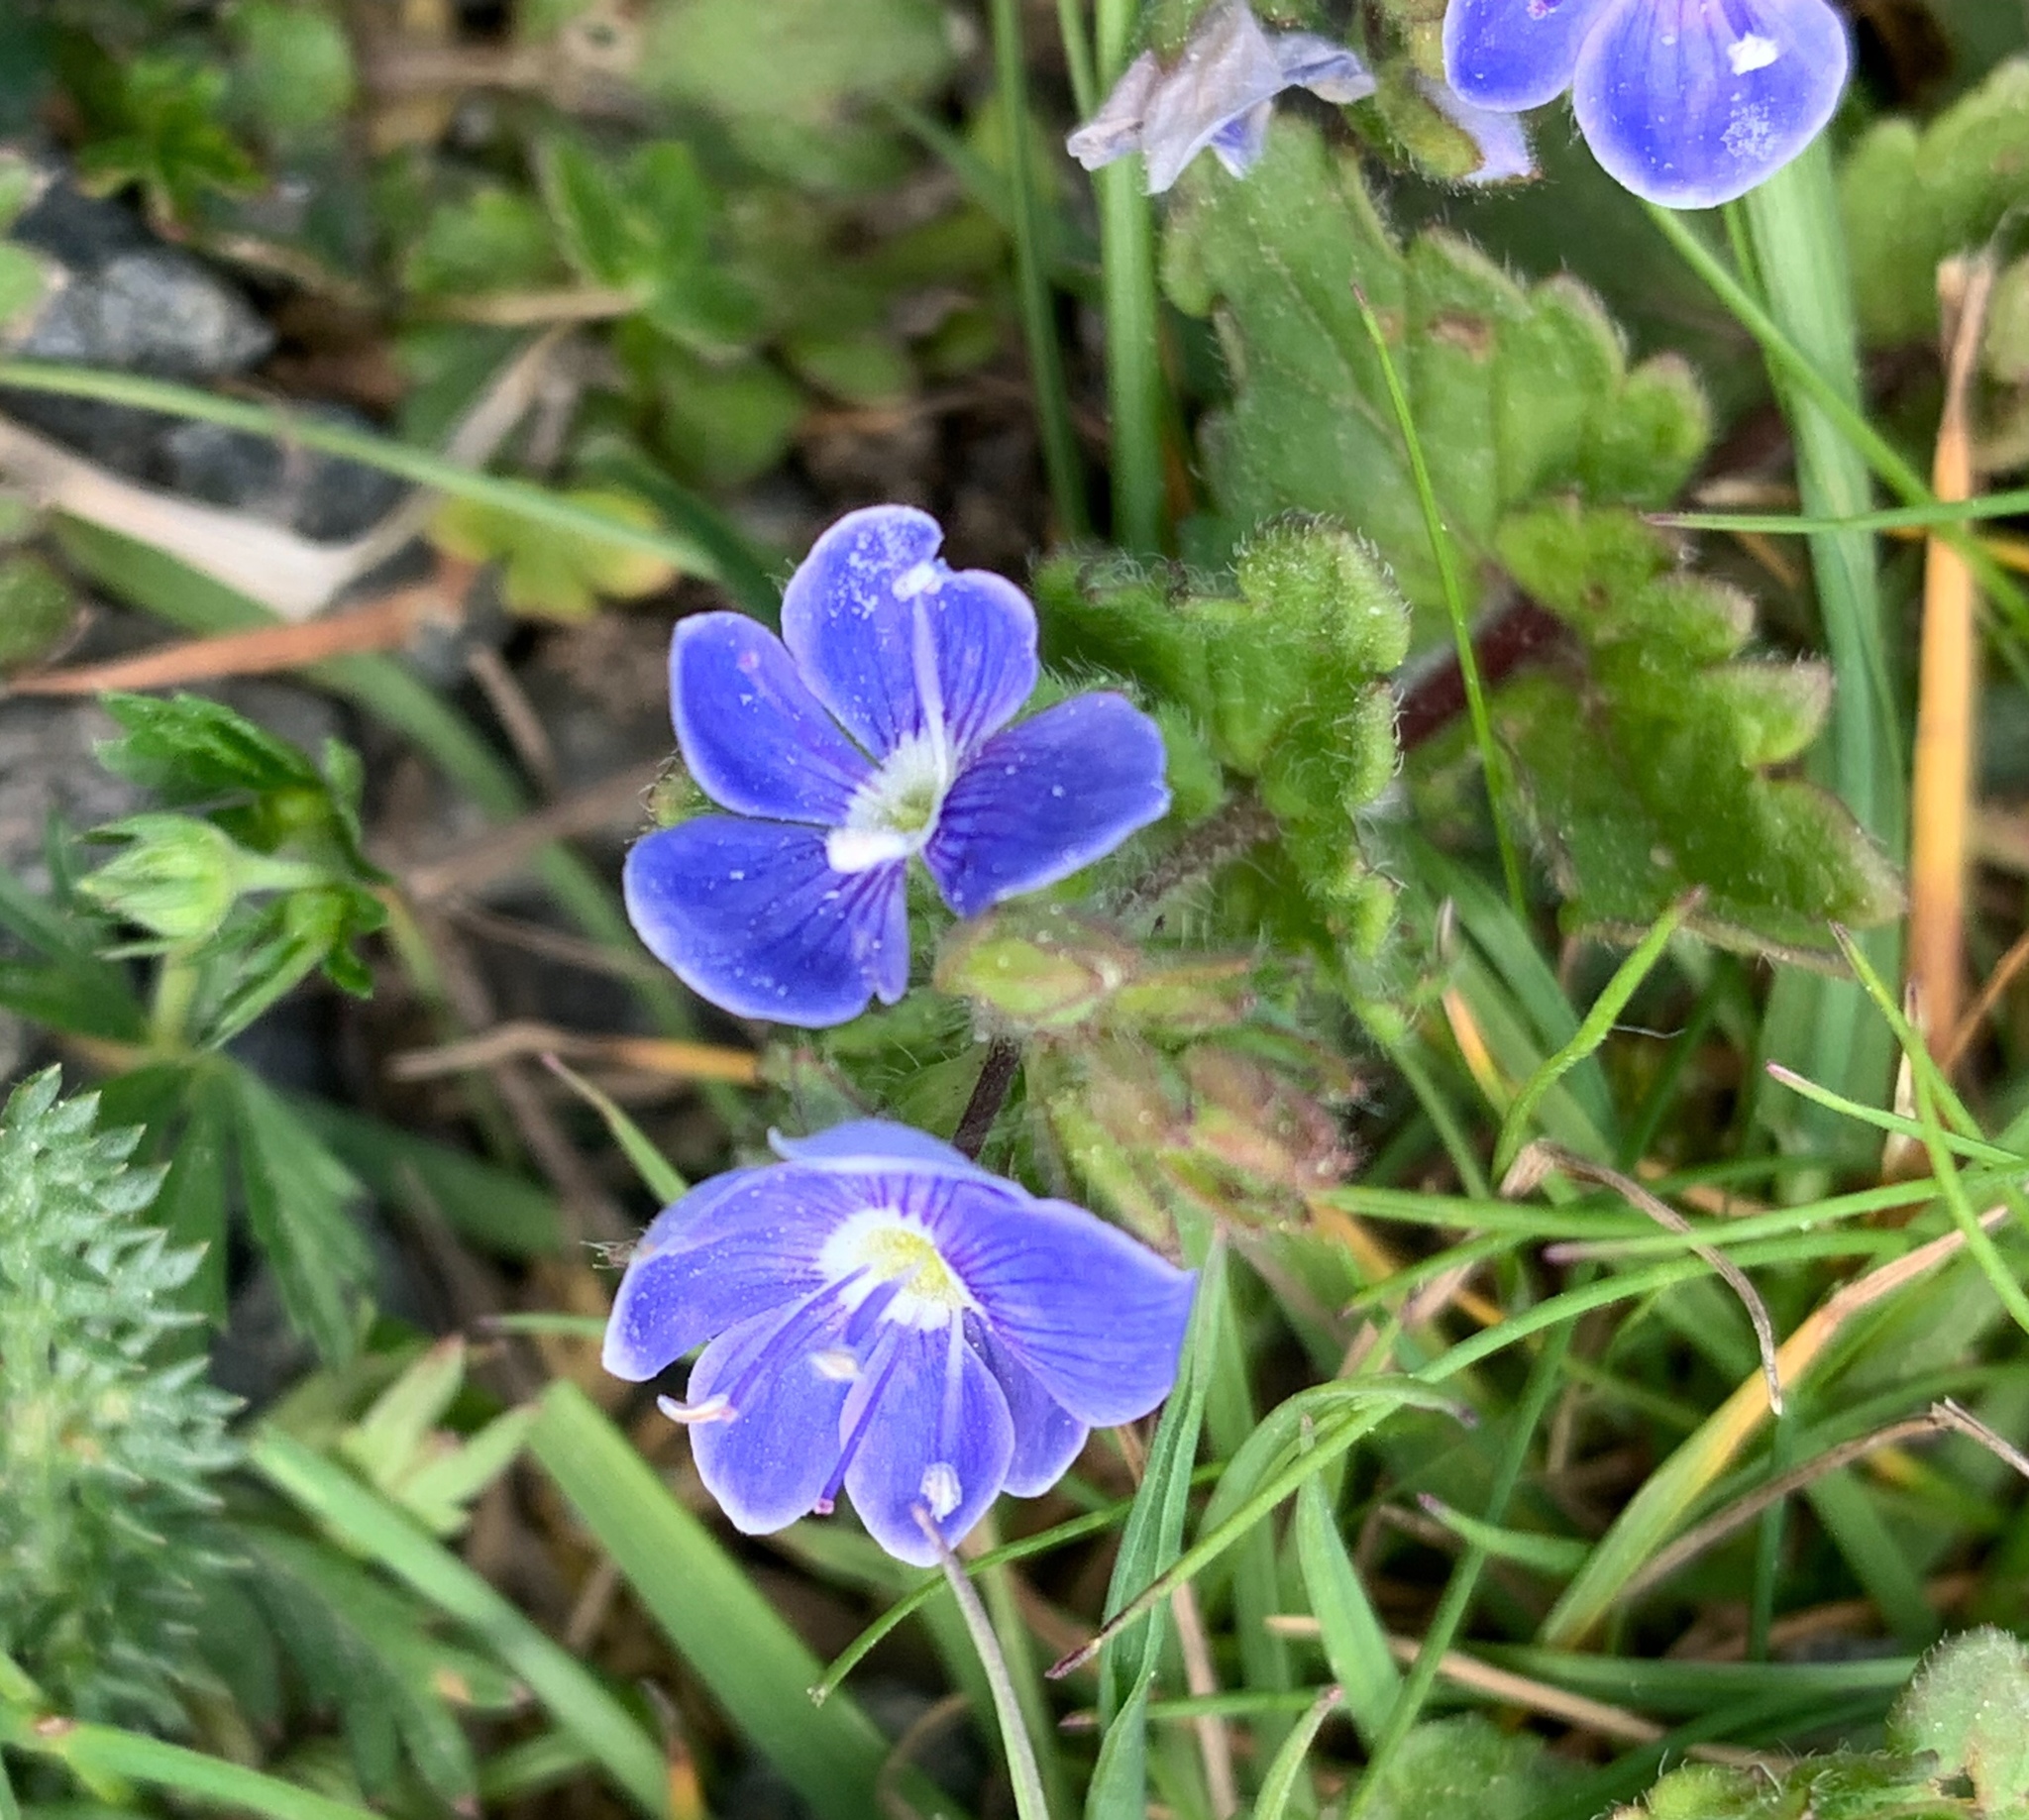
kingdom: Plantae
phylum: Tracheophyta
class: Magnoliopsida
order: Lamiales
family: Plantaginaceae
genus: Veronica
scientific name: Veronica chamaedrys
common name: Germander speedwell
